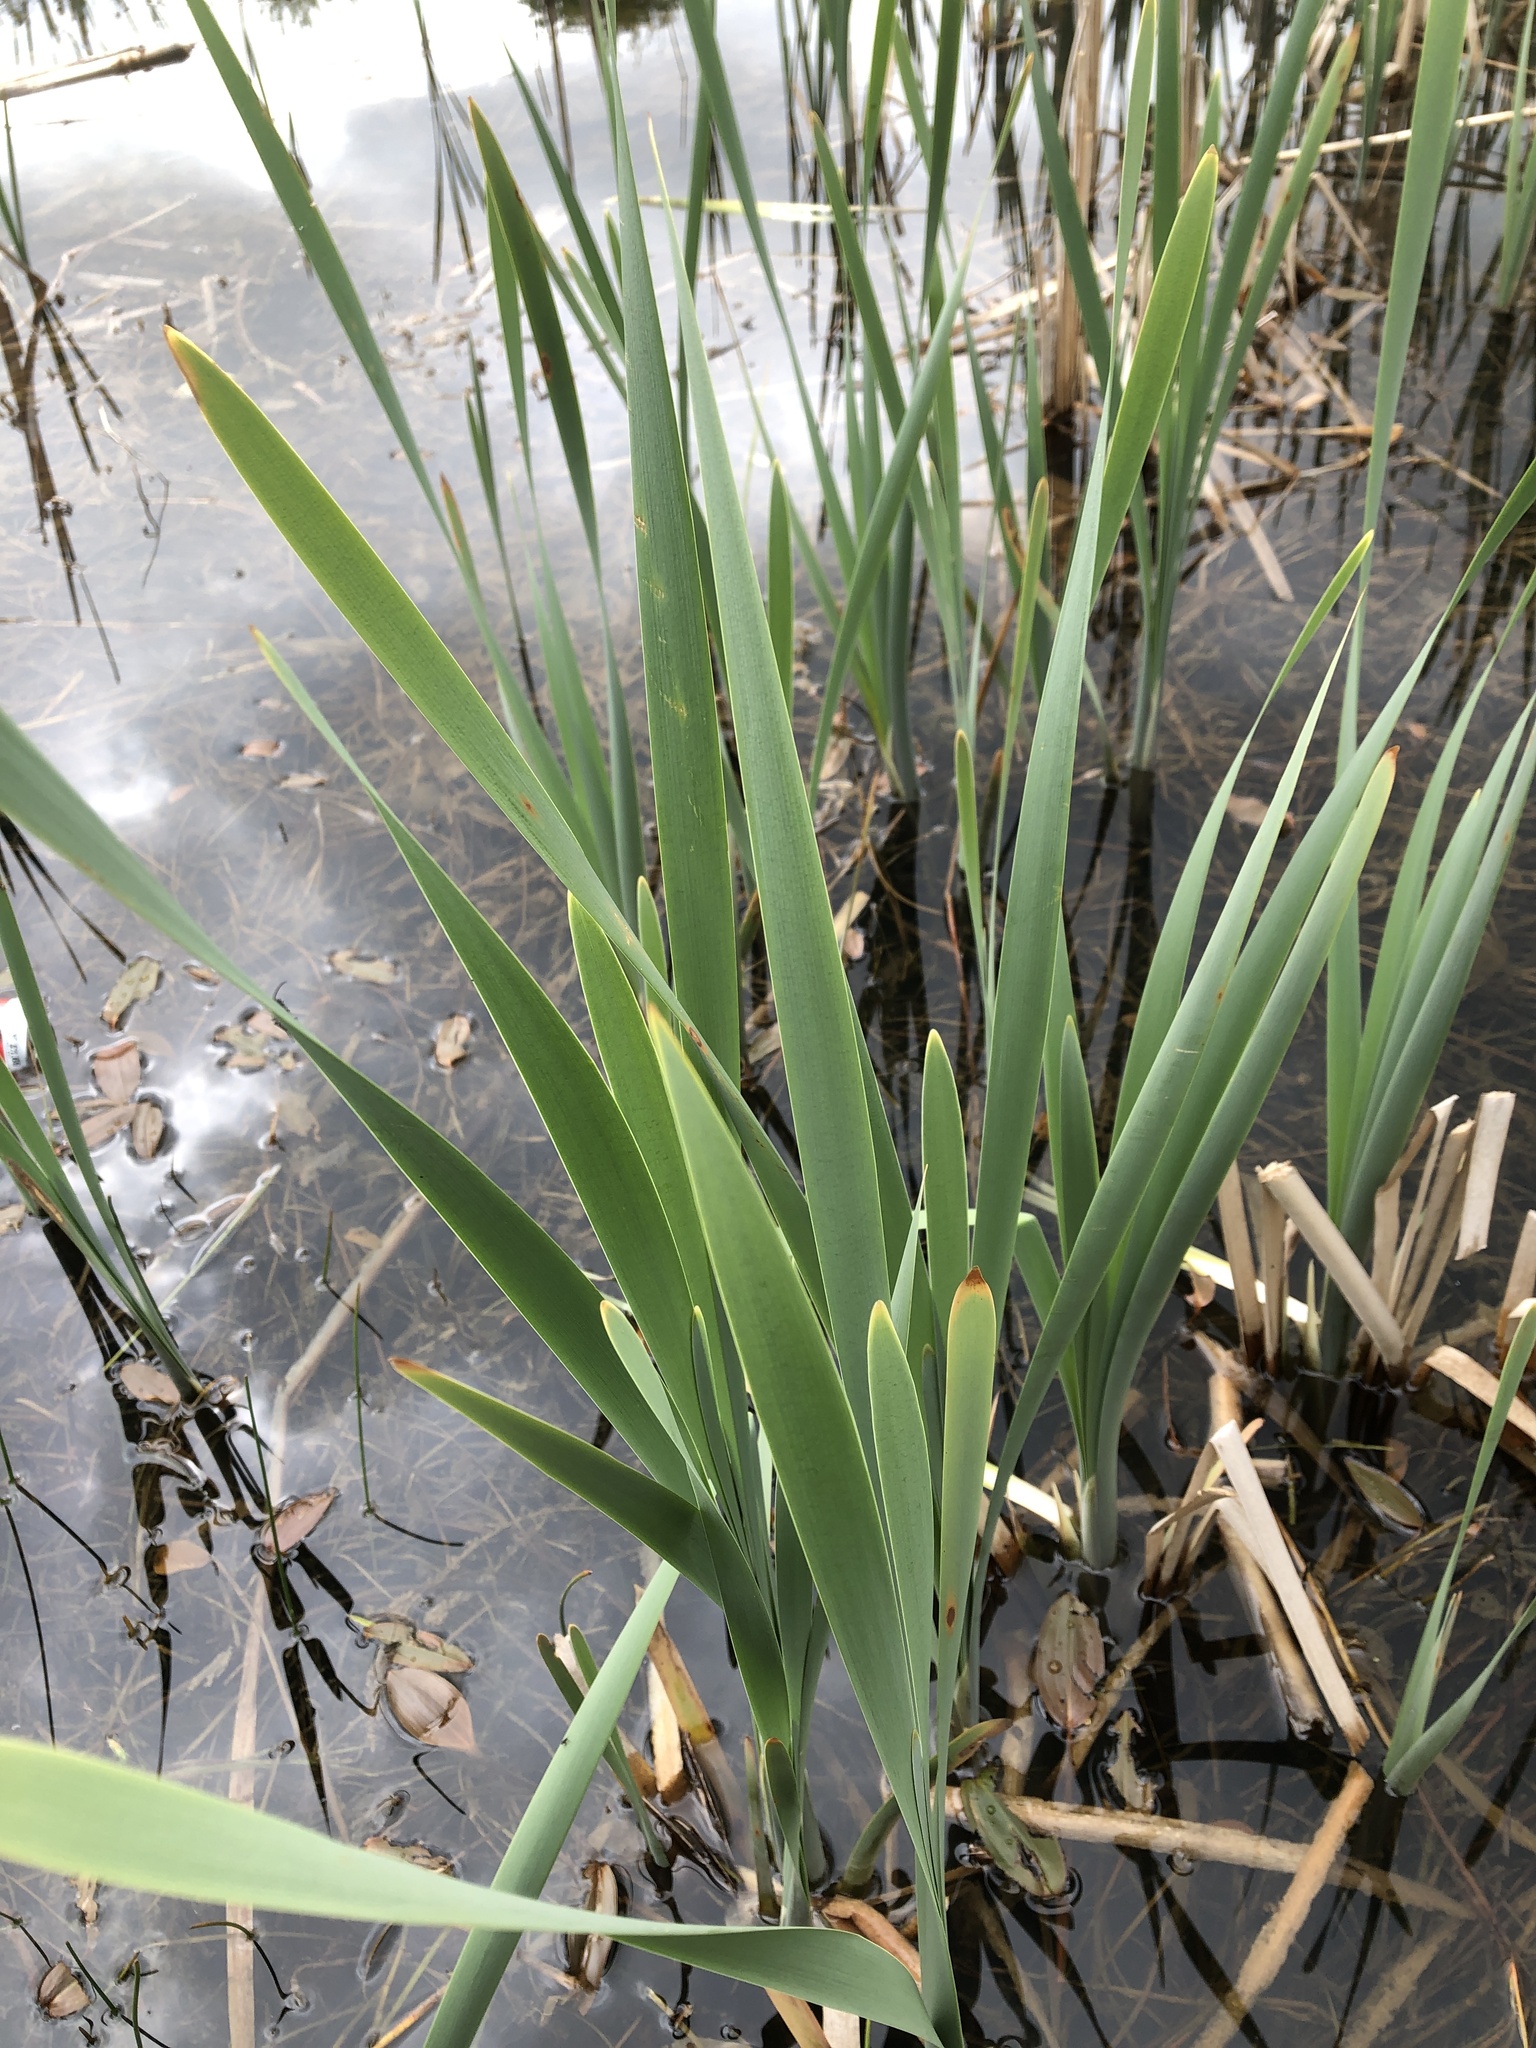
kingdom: Plantae
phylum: Tracheophyta
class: Liliopsida
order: Poales
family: Typhaceae
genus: Typha
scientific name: Typha latifolia
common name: Broadleaf cattail
